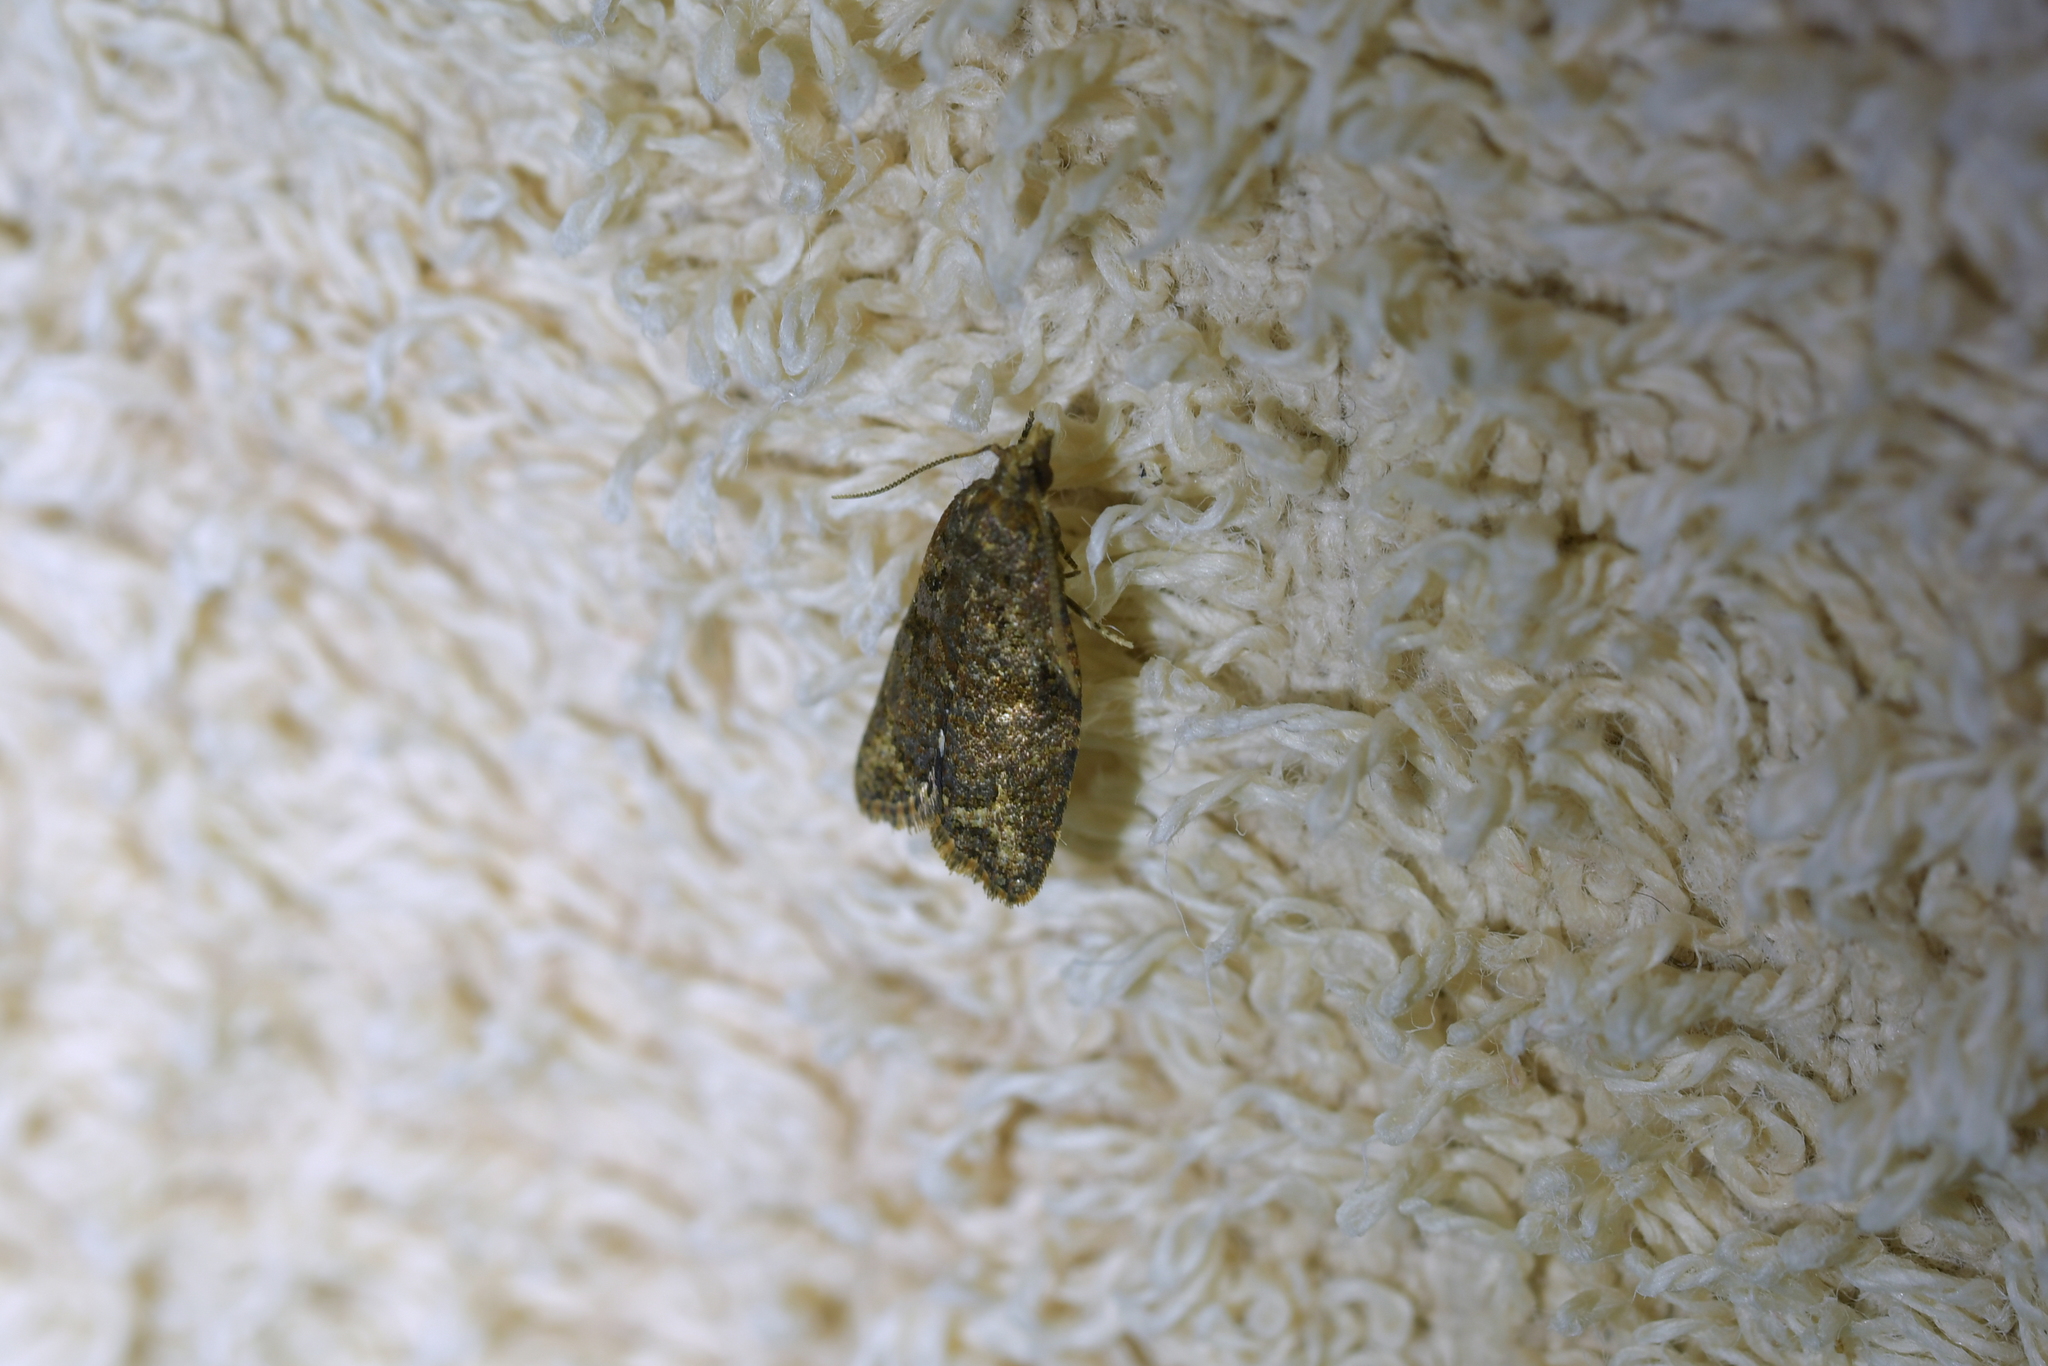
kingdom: Animalia
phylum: Arthropoda
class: Insecta
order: Lepidoptera
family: Tortricidae
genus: Capua
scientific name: Capua intractana
